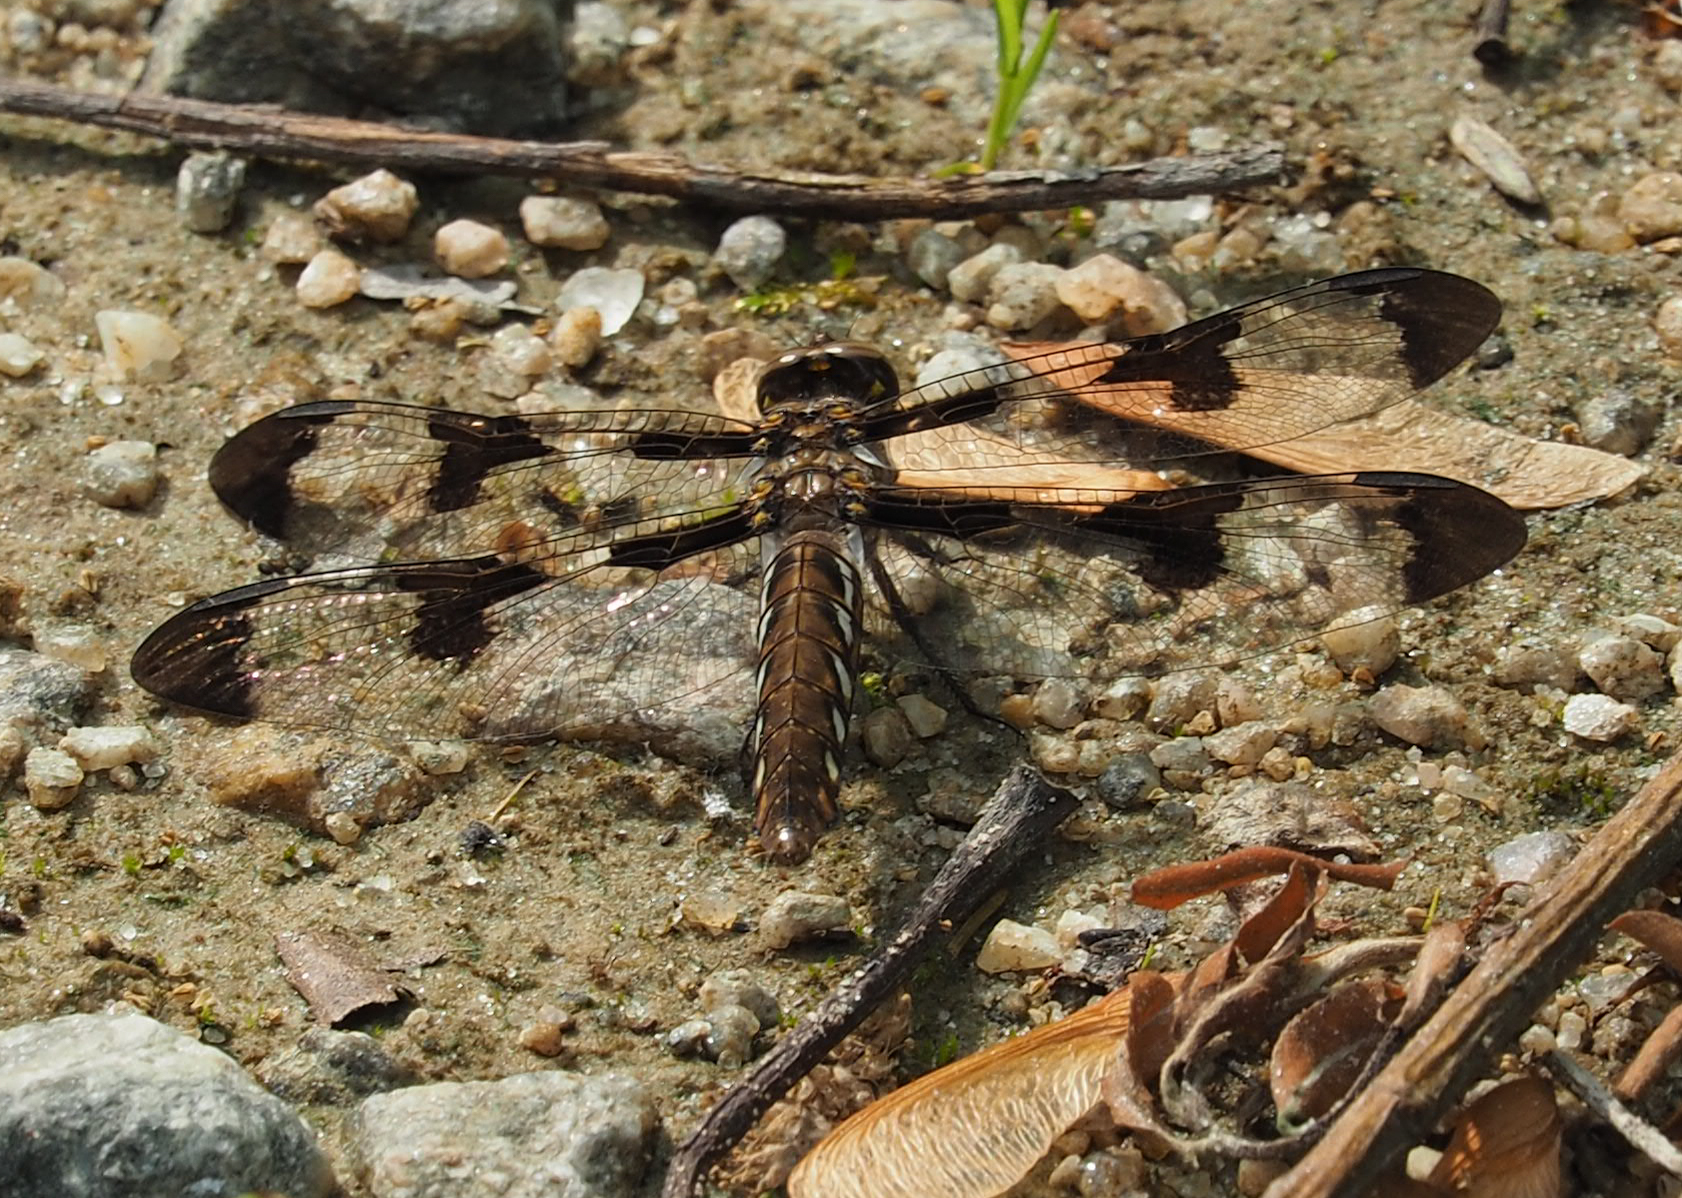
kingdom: Animalia
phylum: Arthropoda
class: Insecta
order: Odonata
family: Libellulidae
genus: Plathemis
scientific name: Plathemis lydia
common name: Common whitetail
